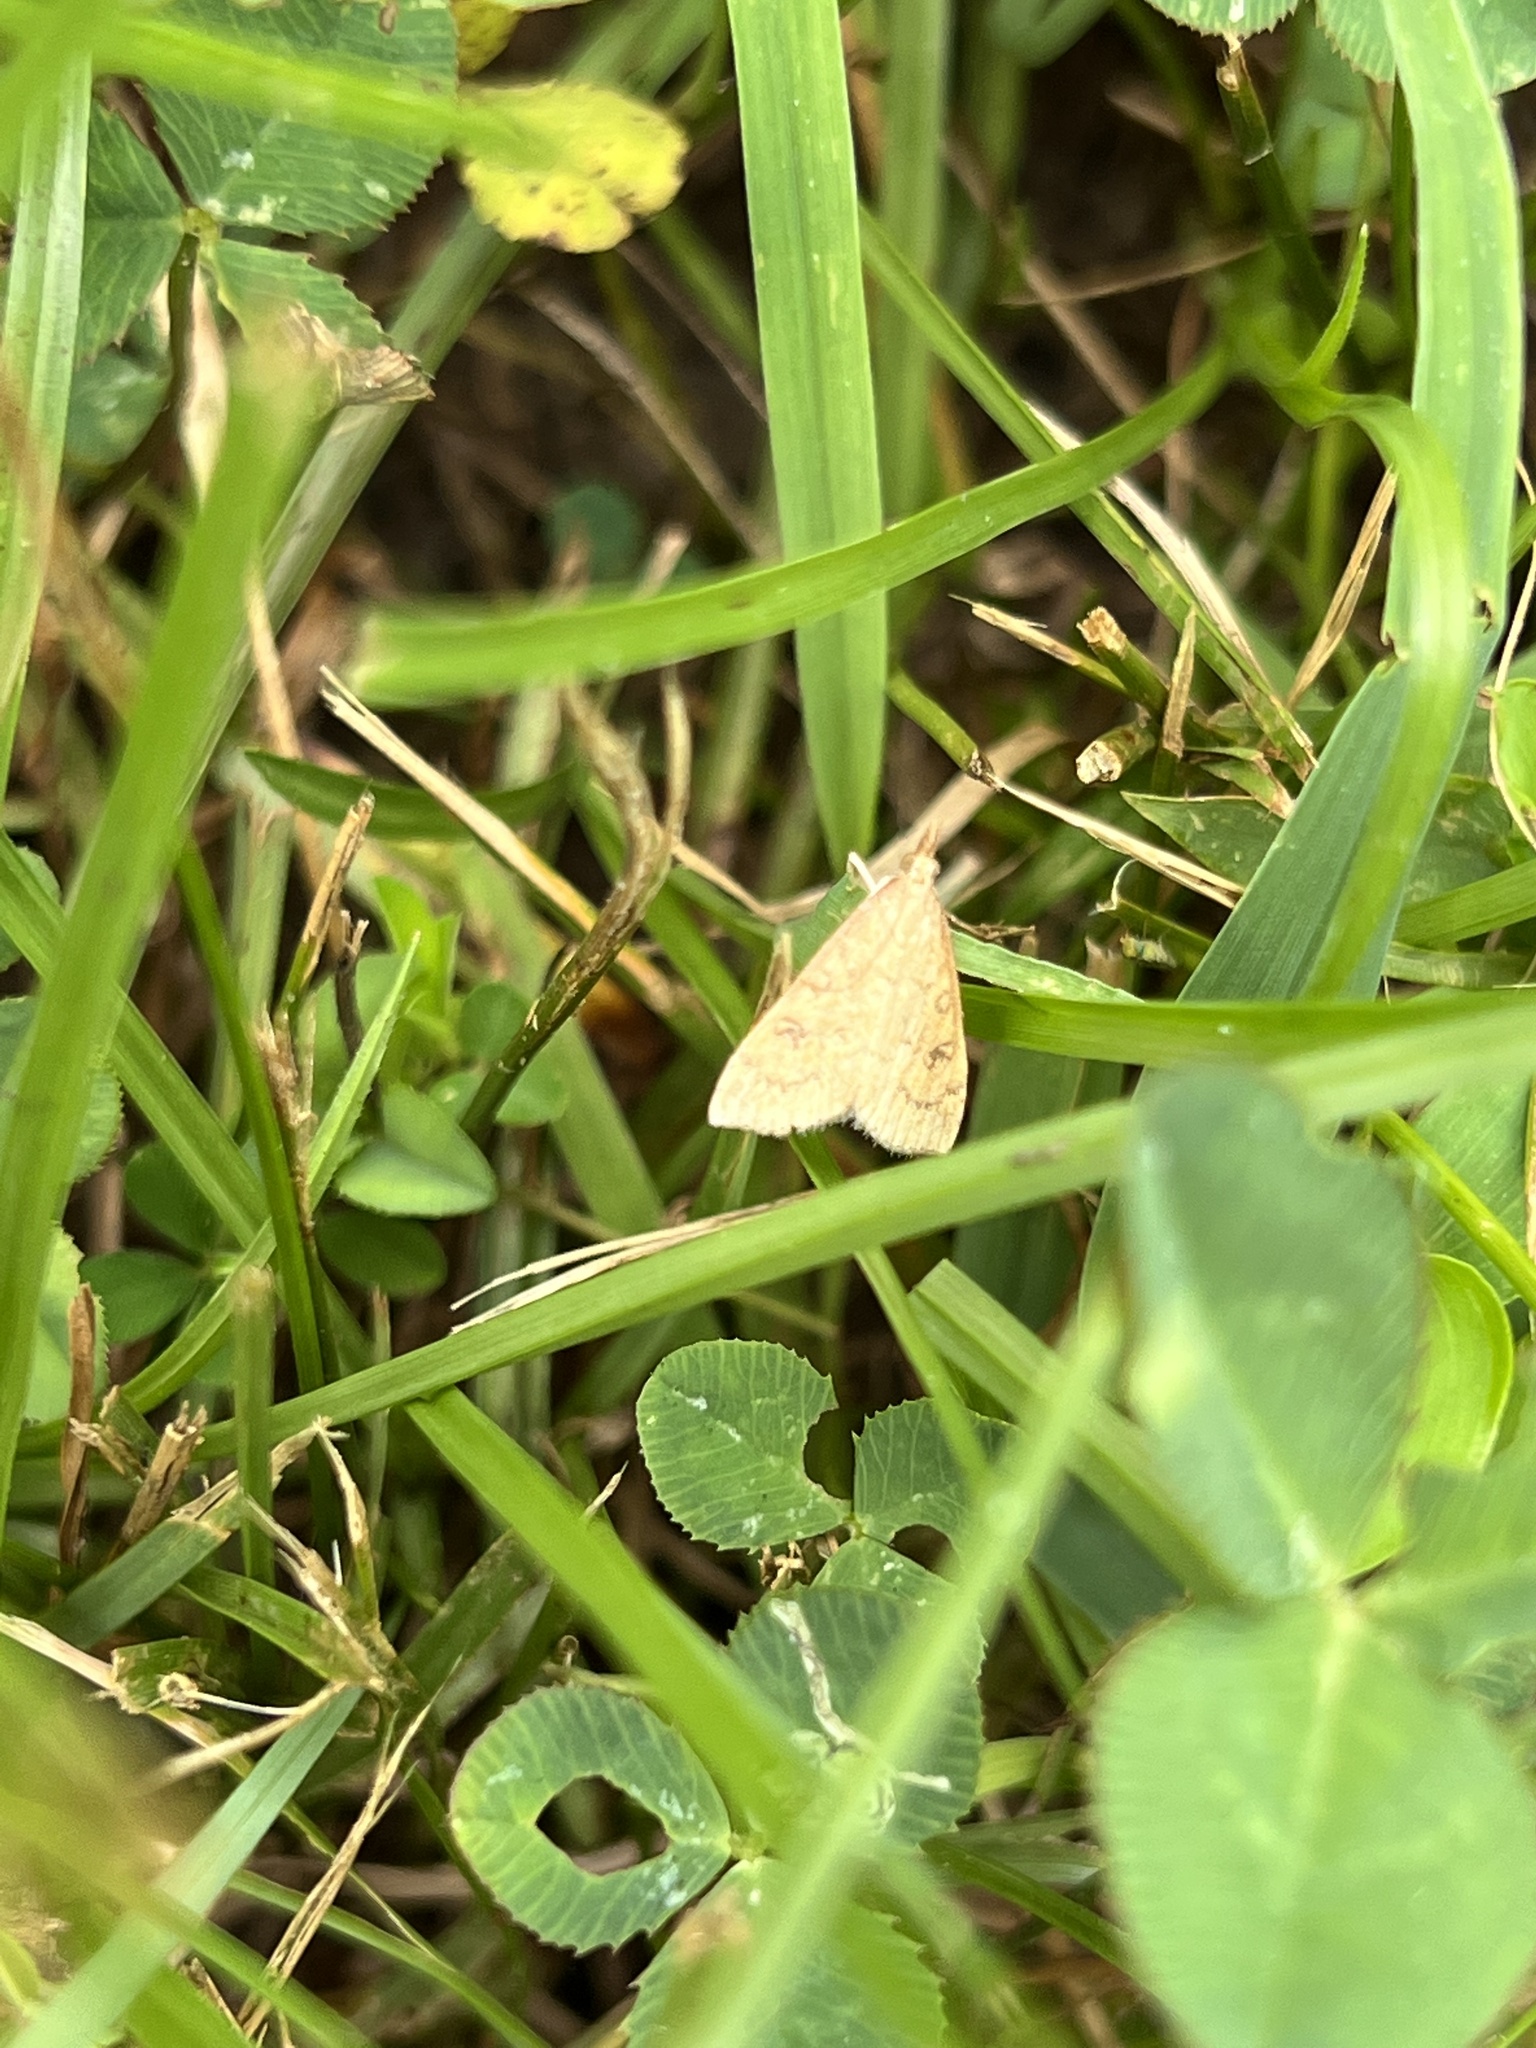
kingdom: Animalia
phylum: Arthropoda
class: Insecta
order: Lepidoptera
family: Crambidae
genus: Udea
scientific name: Udea rubigalis
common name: Celery leaftier moth
